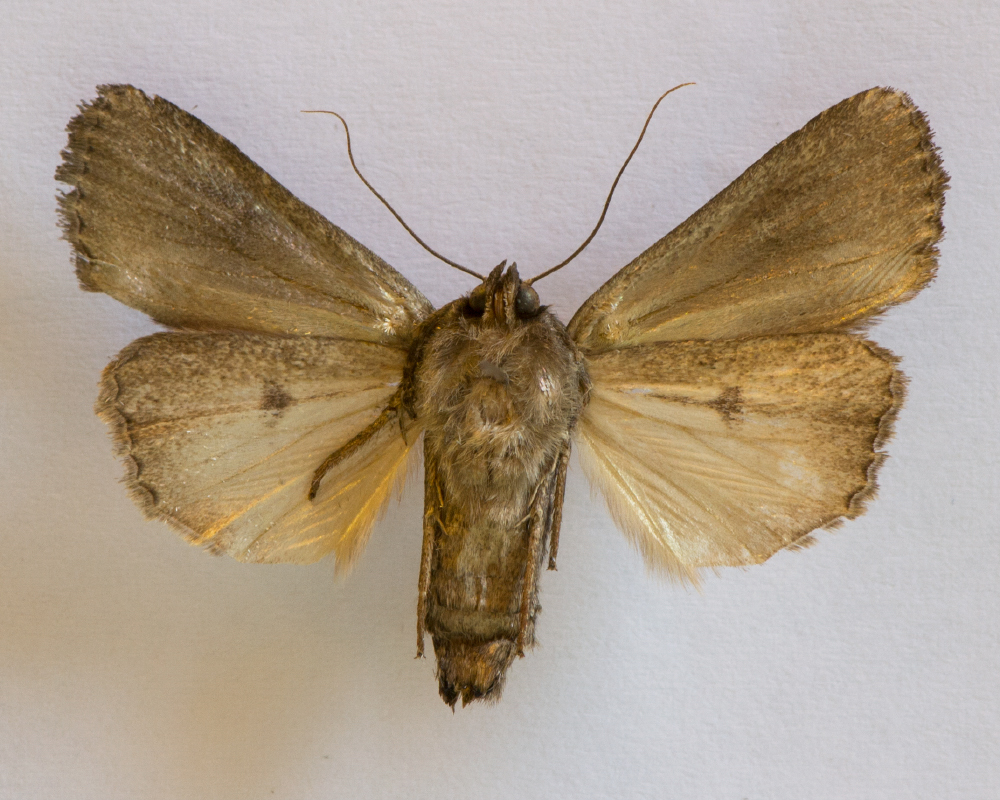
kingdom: Animalia
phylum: Arthropoda
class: Insecta
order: Lepidoptera
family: Noctuidae
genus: Amphipyra
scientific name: Amphipyra tragopoginis
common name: Mouse moth
